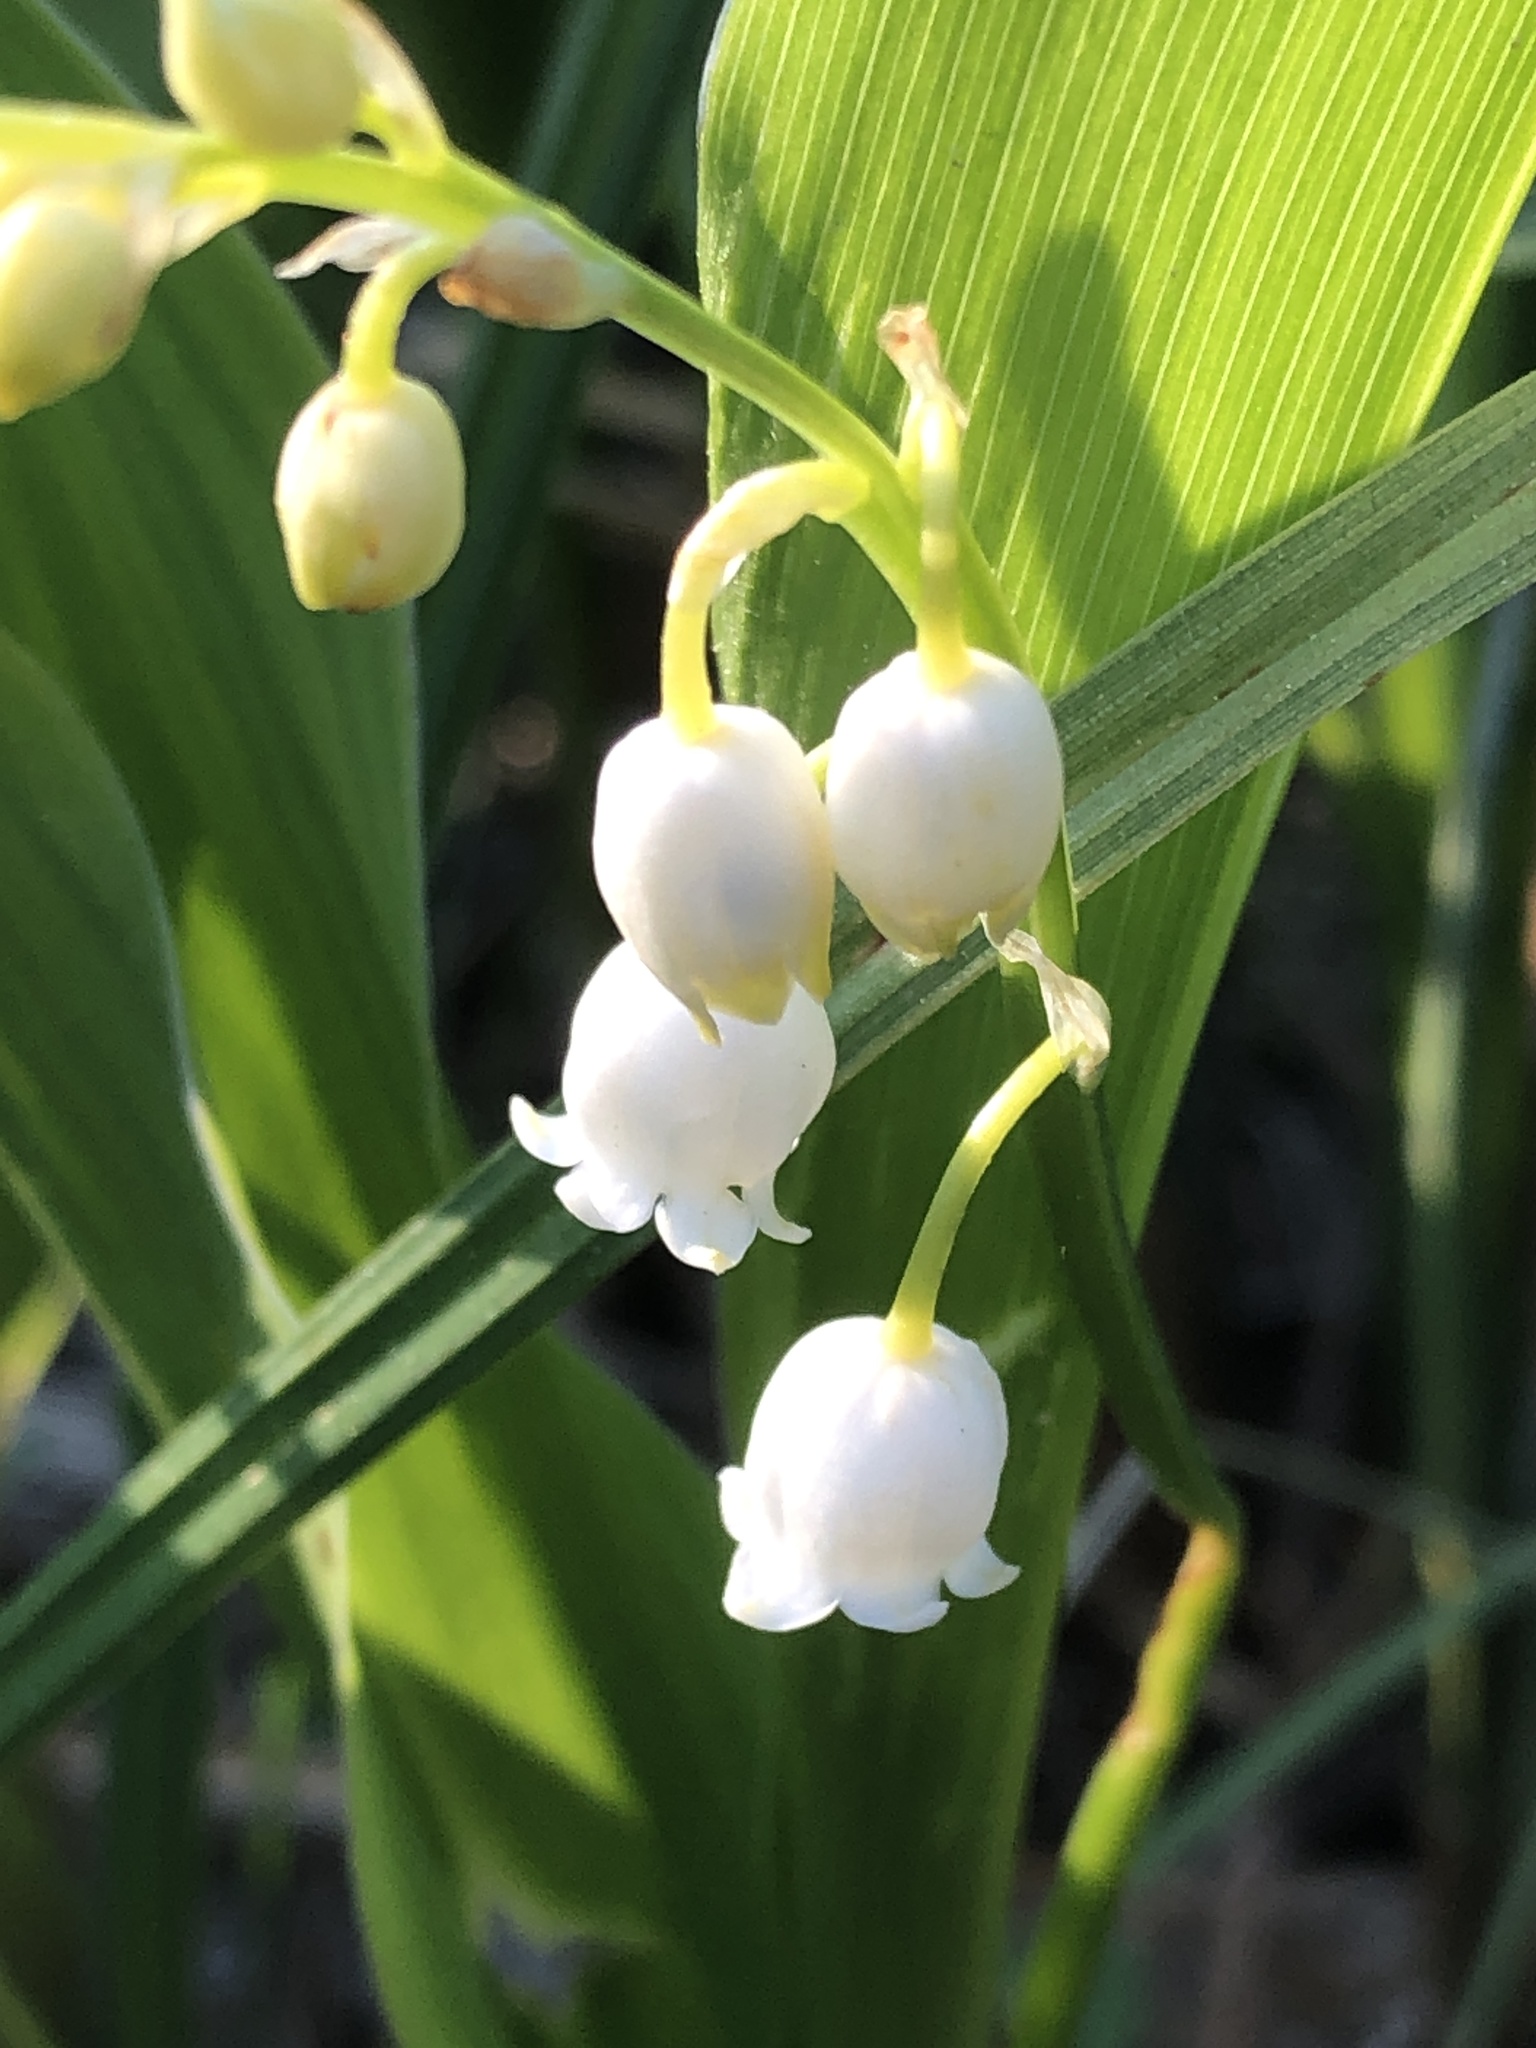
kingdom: Plantae
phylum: Tracheophyta
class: Liliopsida
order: Asparagales
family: Asparagaceae
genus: Convallaria
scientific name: Convallaria majalis
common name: Lily-of-the-valley
